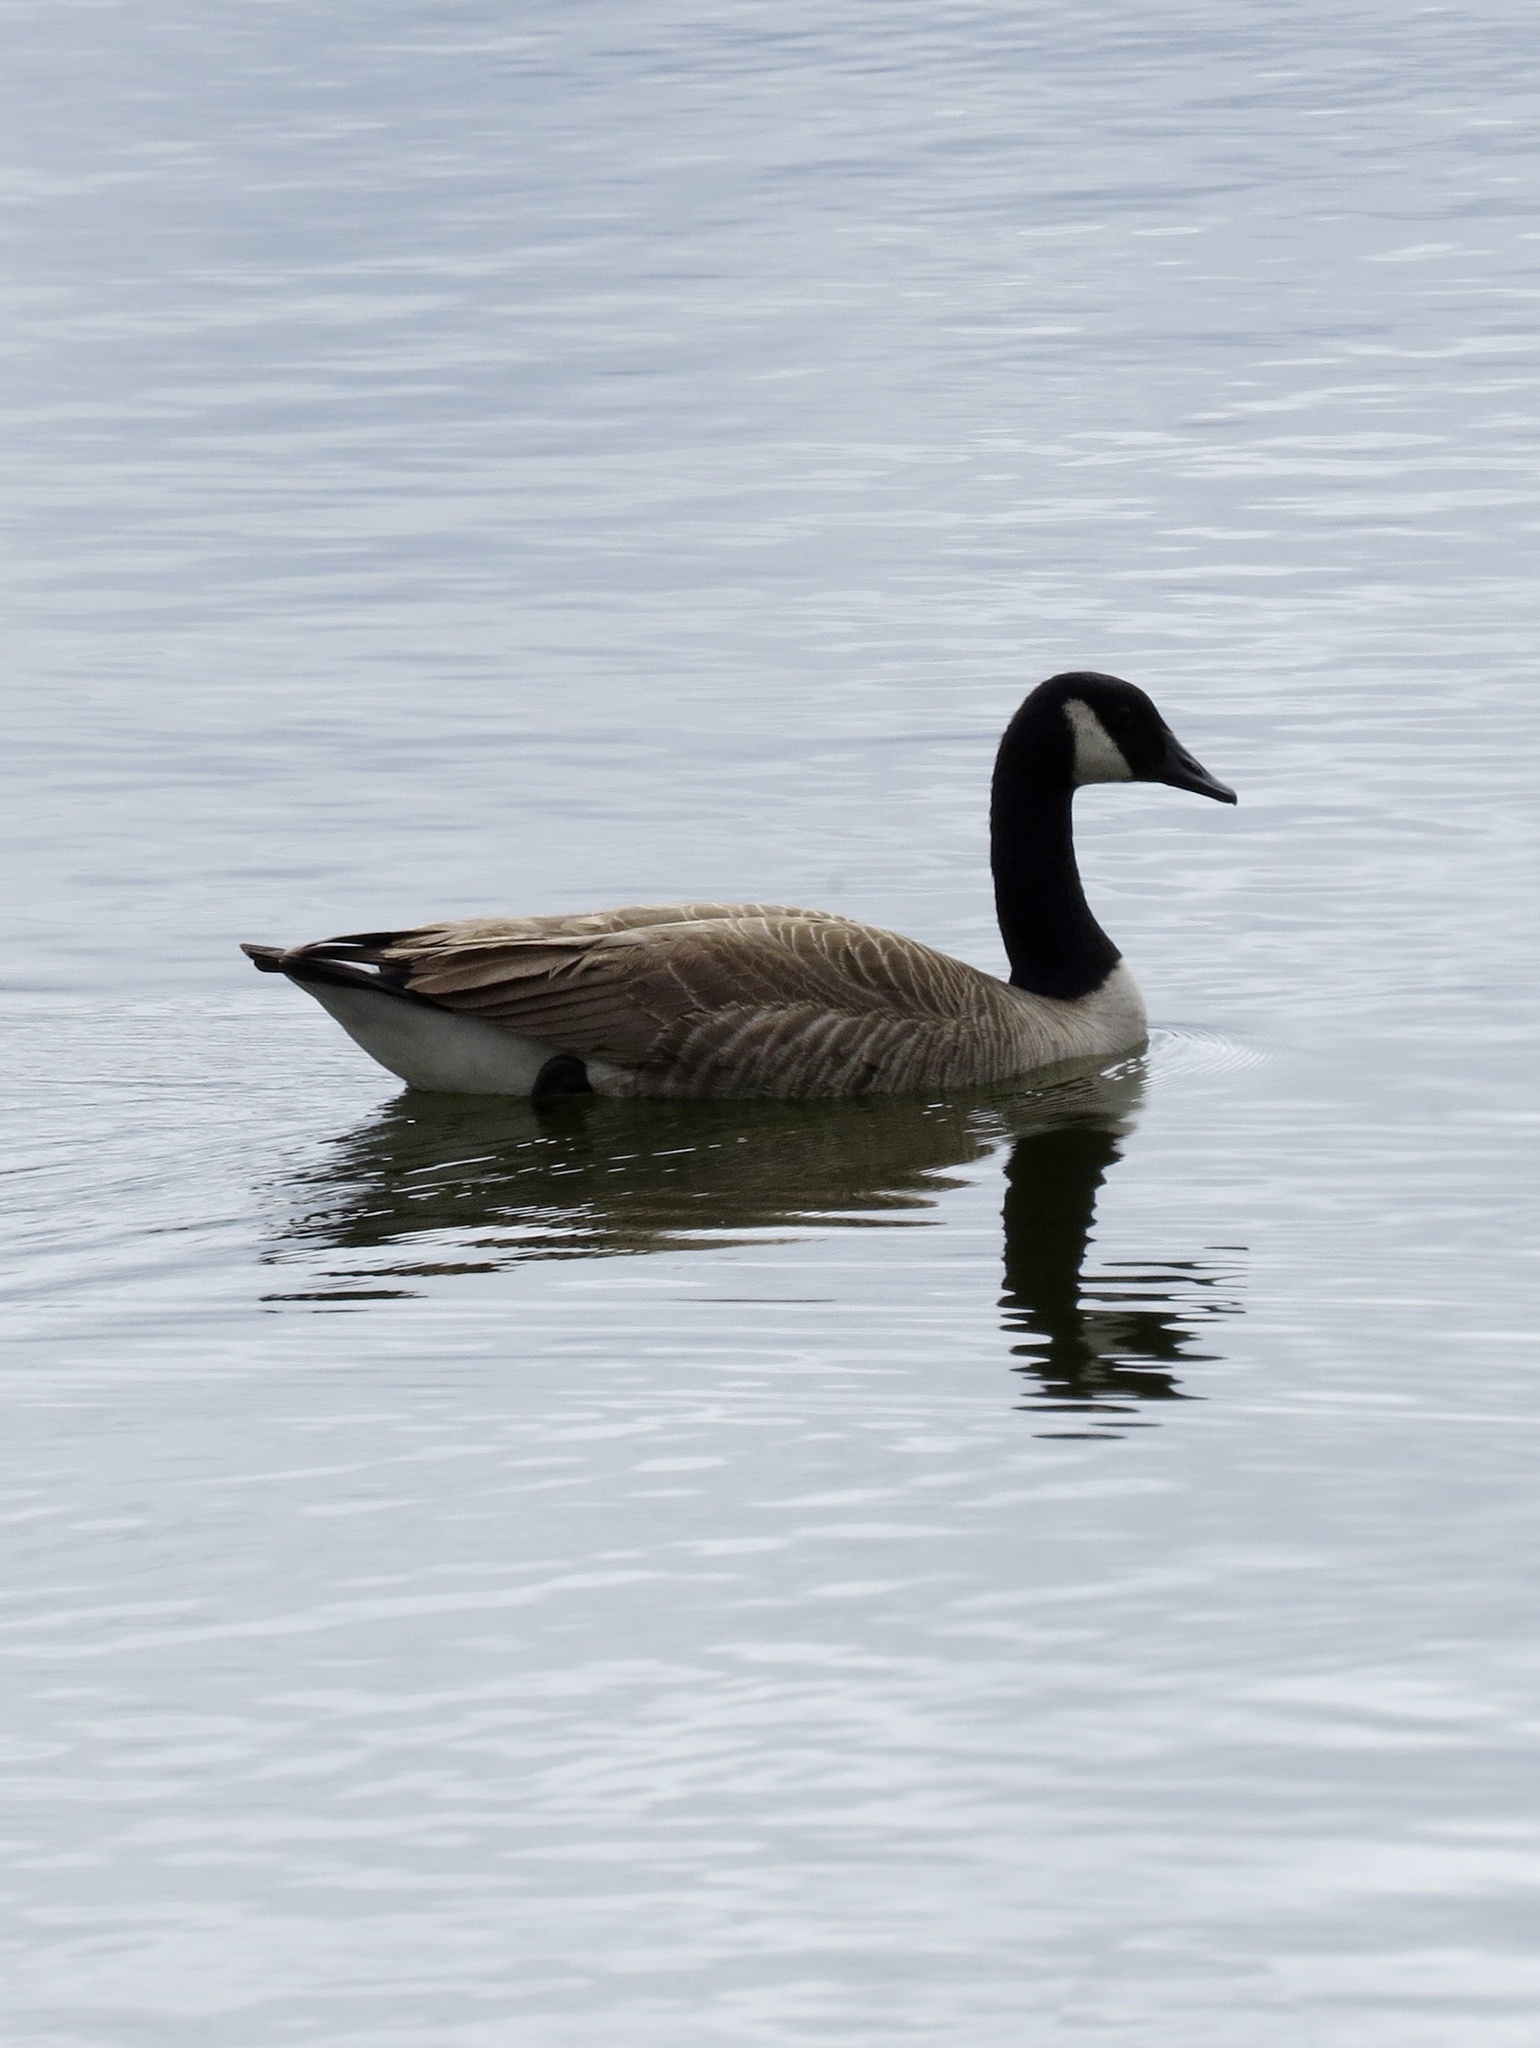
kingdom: Animalia
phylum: Chordata
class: Aves
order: Anseriformes
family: Anatidae
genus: Branta
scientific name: Branta canadensis
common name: Canada goose
